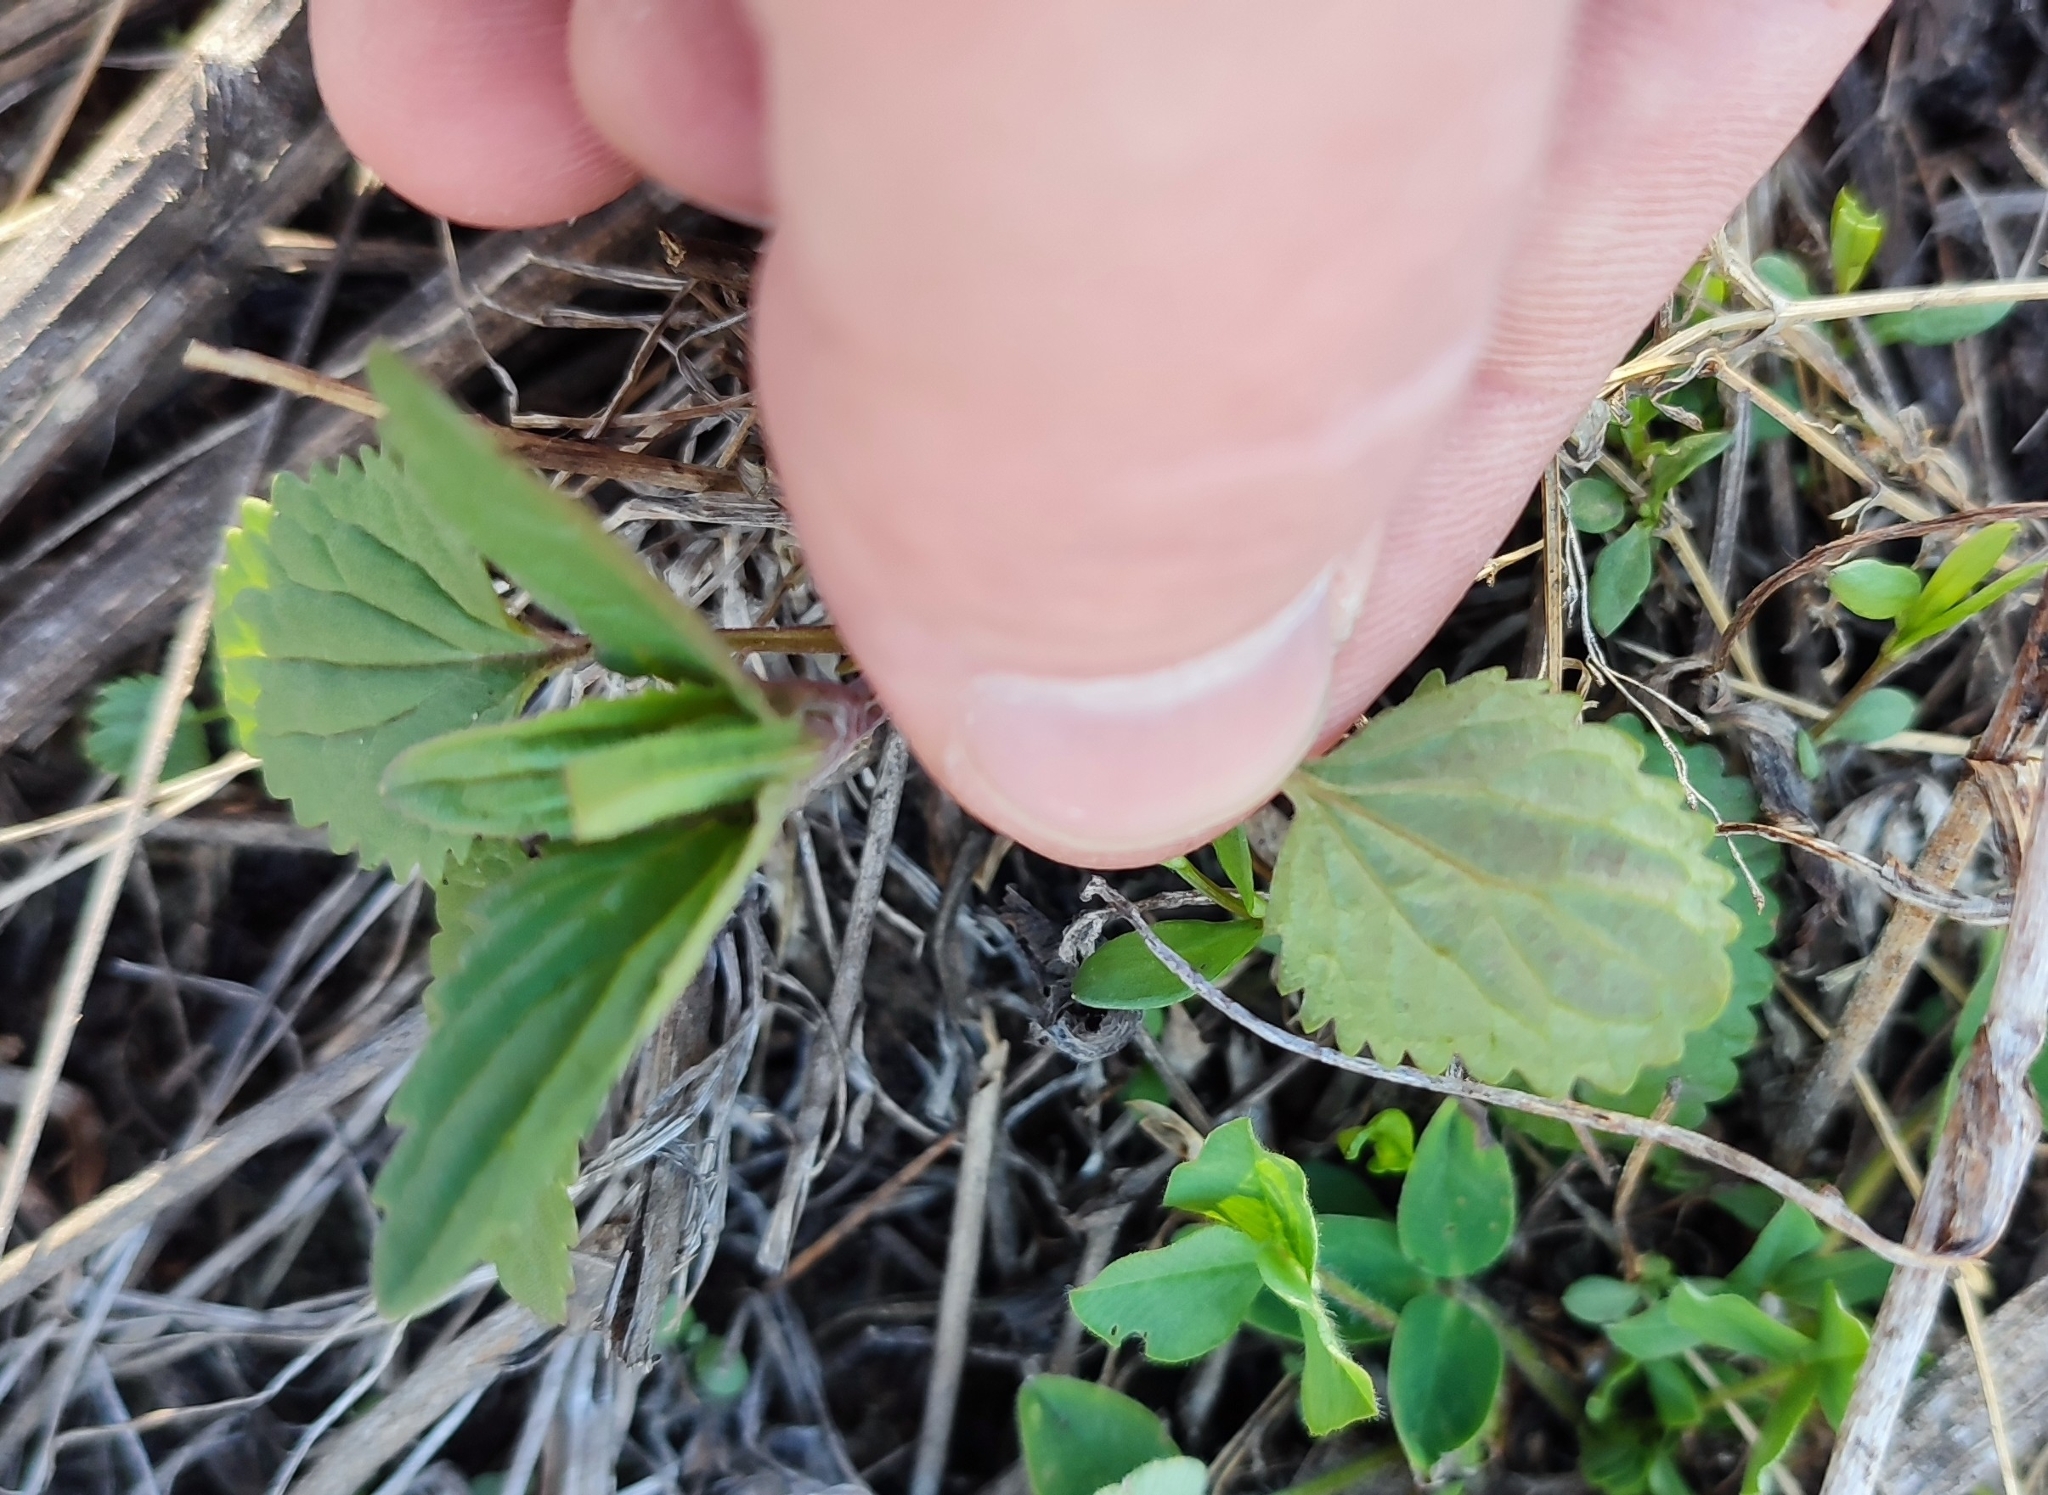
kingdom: Plantae
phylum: Tracheophyta
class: Magnoliopsida
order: Lamiales
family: Lamiaceae
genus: Dracocephalum
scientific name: Dracocephalum thymiflorum
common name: Thymeleaf dragonhead
